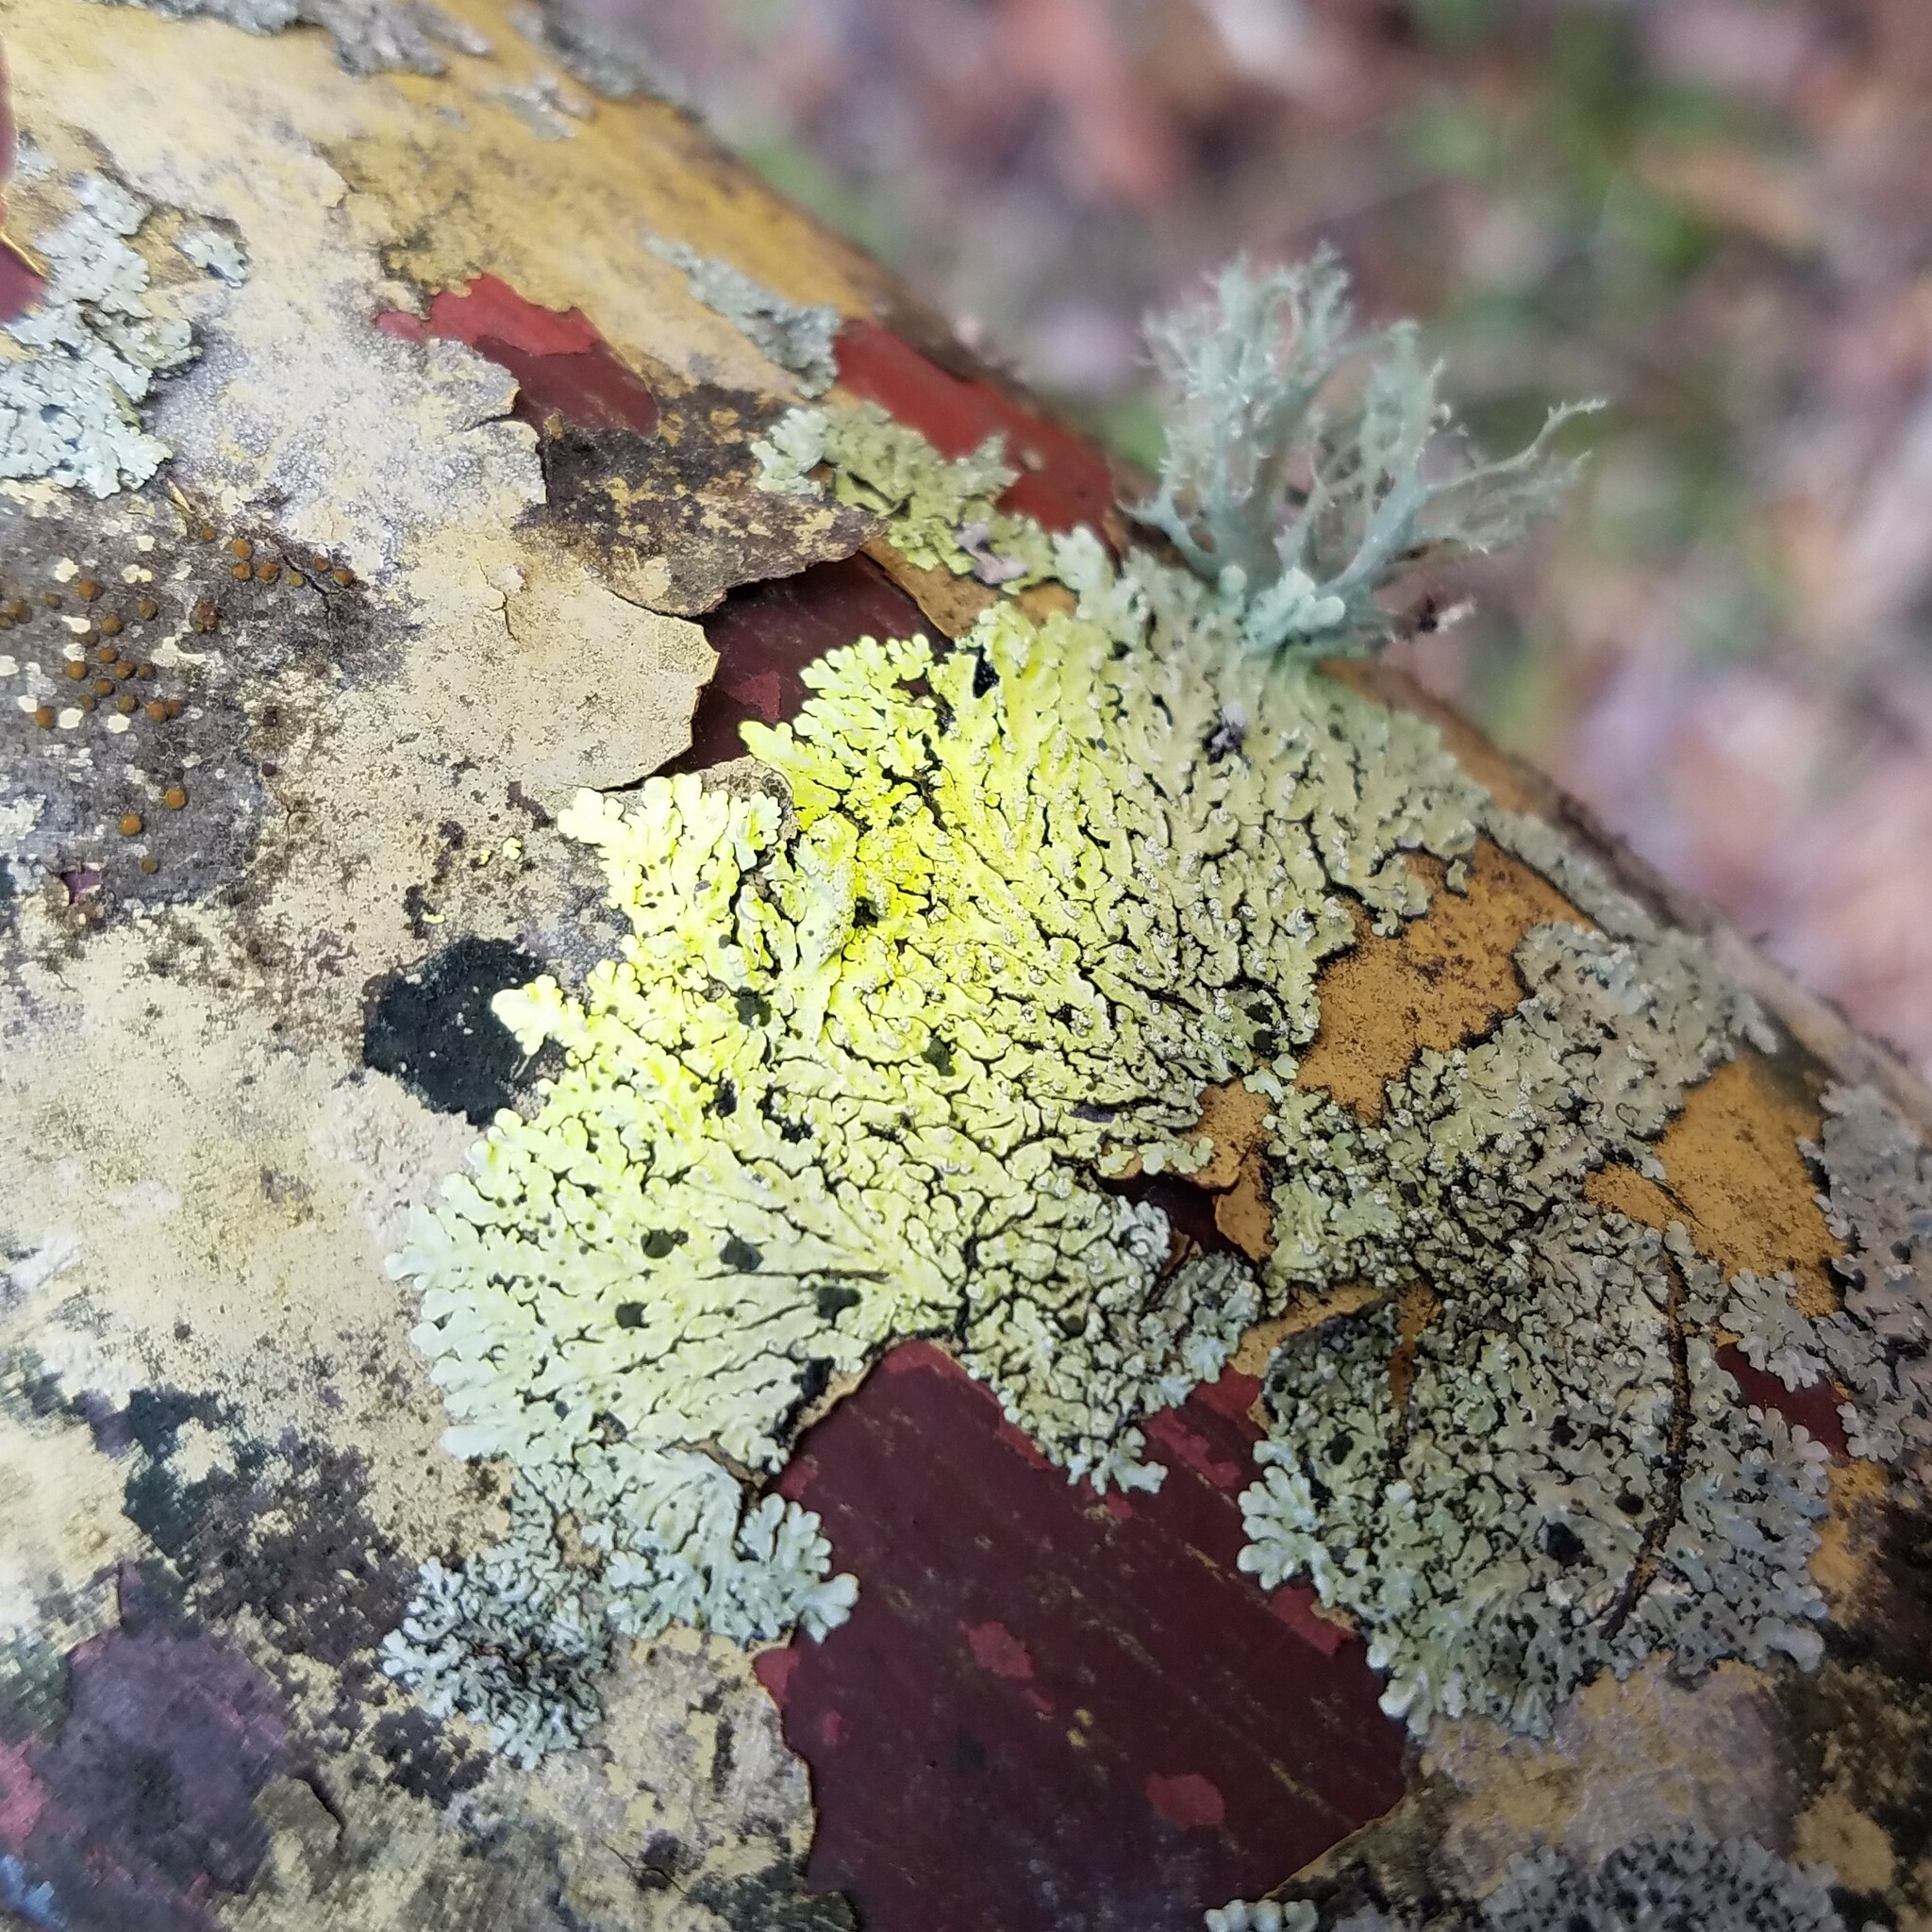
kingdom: Fungi
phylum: Ascomycota
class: Lecanoromycetes
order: Caliciales
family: Caliciaceae
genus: Pyxine
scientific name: Pyxine subcinerea
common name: Mustard lichen
